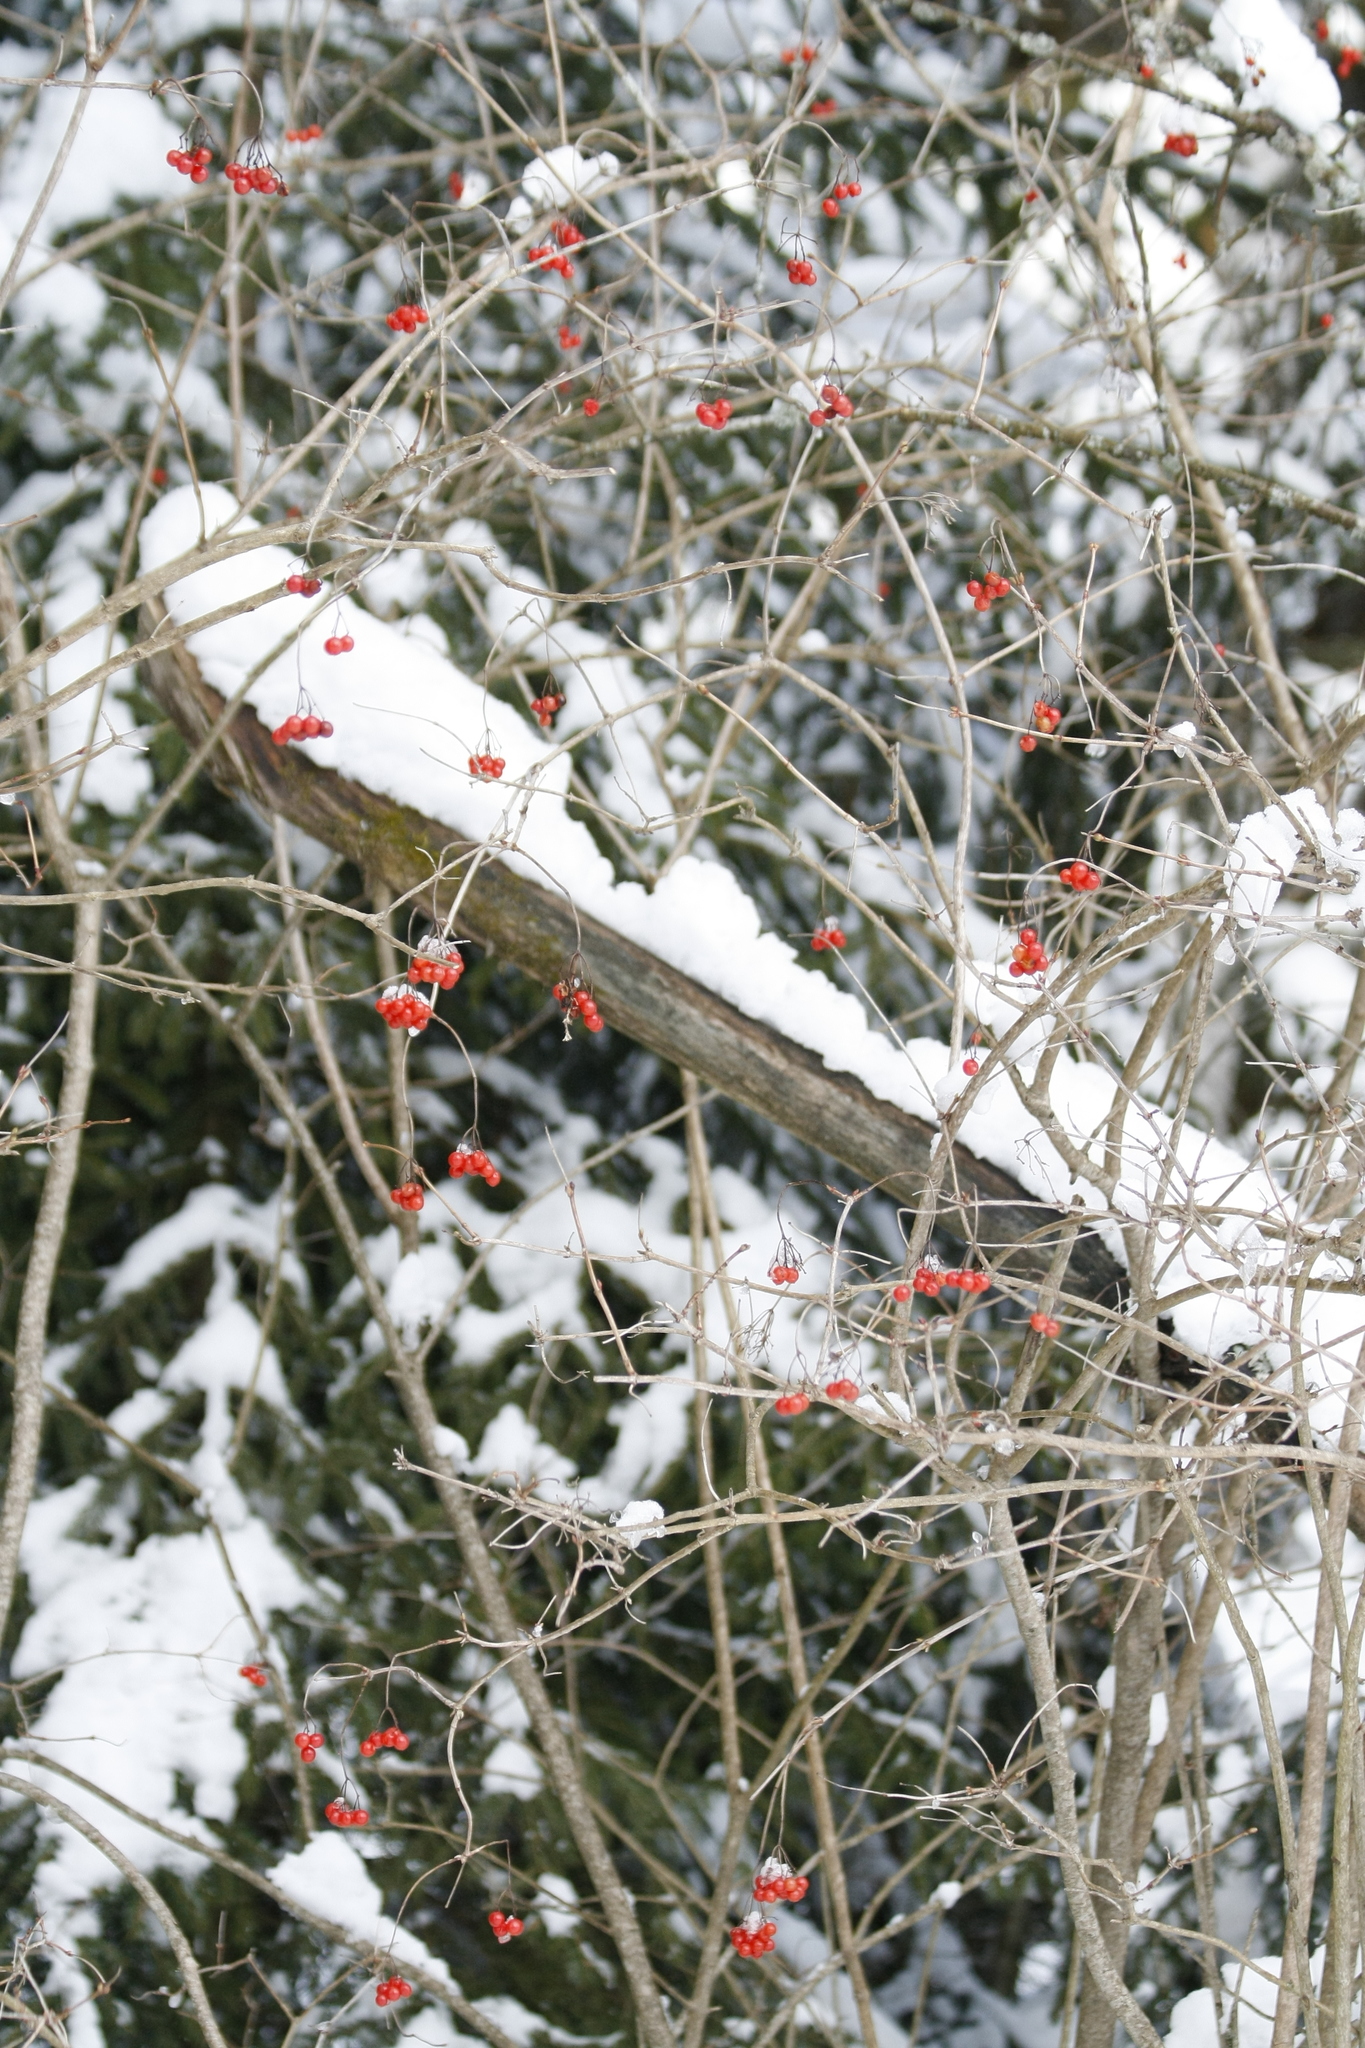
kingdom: Plantae
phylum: Tracheophyta
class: Magnoliopsida
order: Dipsacales
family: Viburnaceae
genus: Viburnum
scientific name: Viburnum opulus
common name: Guelder-rose
